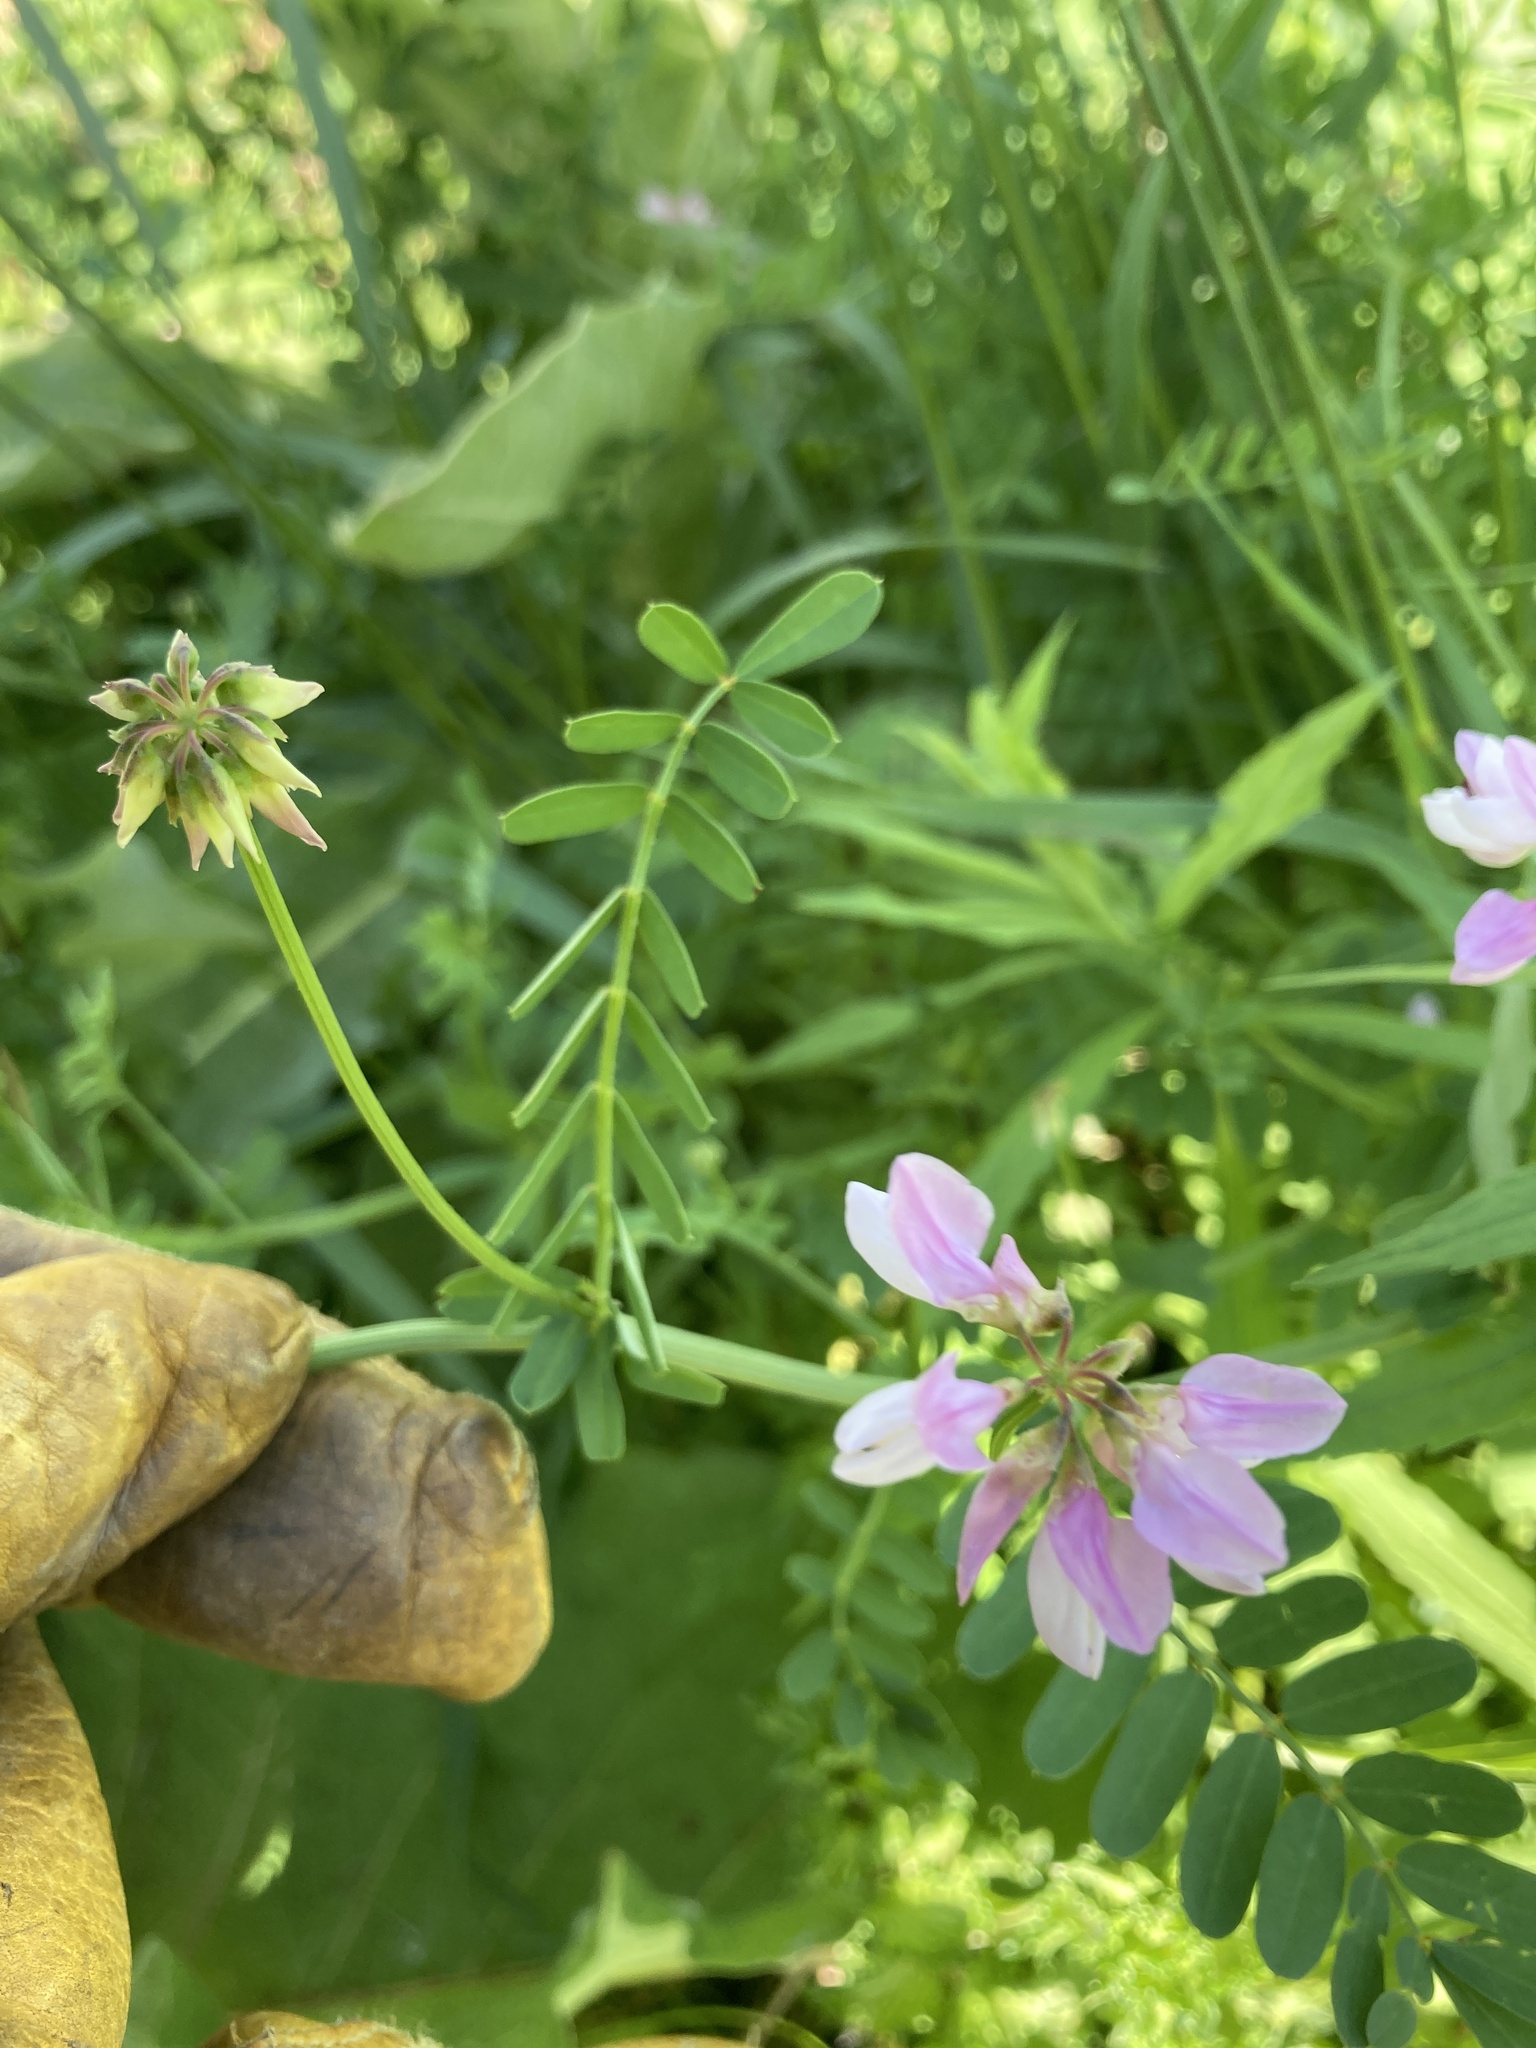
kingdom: Plantae
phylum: Tracheophyta
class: Magnoliopsida
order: Fabales
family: Fabaceae
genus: Coronilla
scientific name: Coronilla varia
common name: Crownvetch
